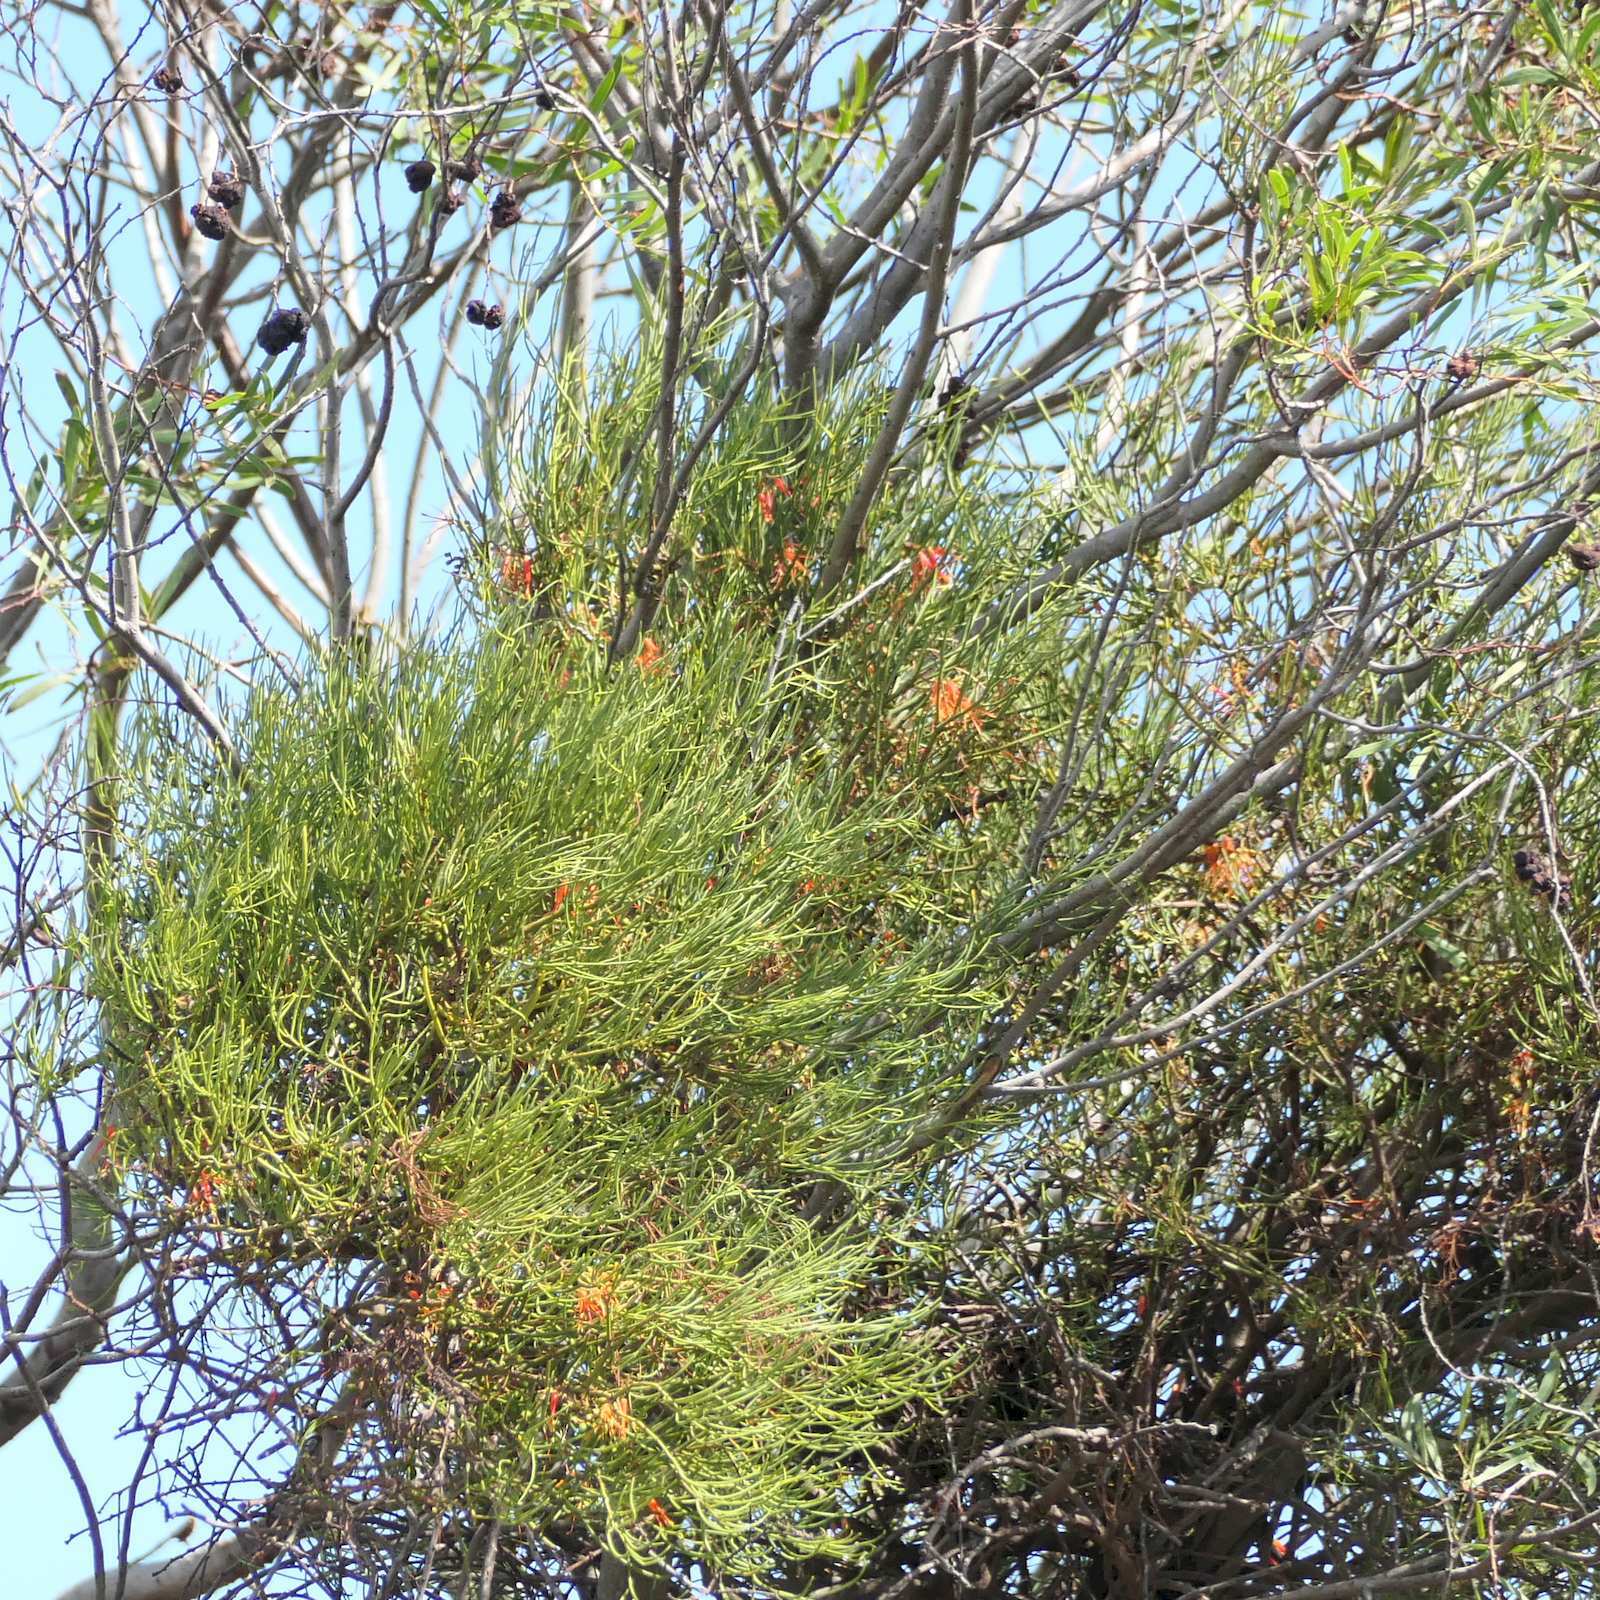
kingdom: Plantae
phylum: Tracheophyta
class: Magnoliopsida
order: Santalales
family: Loranthaceae
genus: Amyema
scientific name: Amyema preissii
